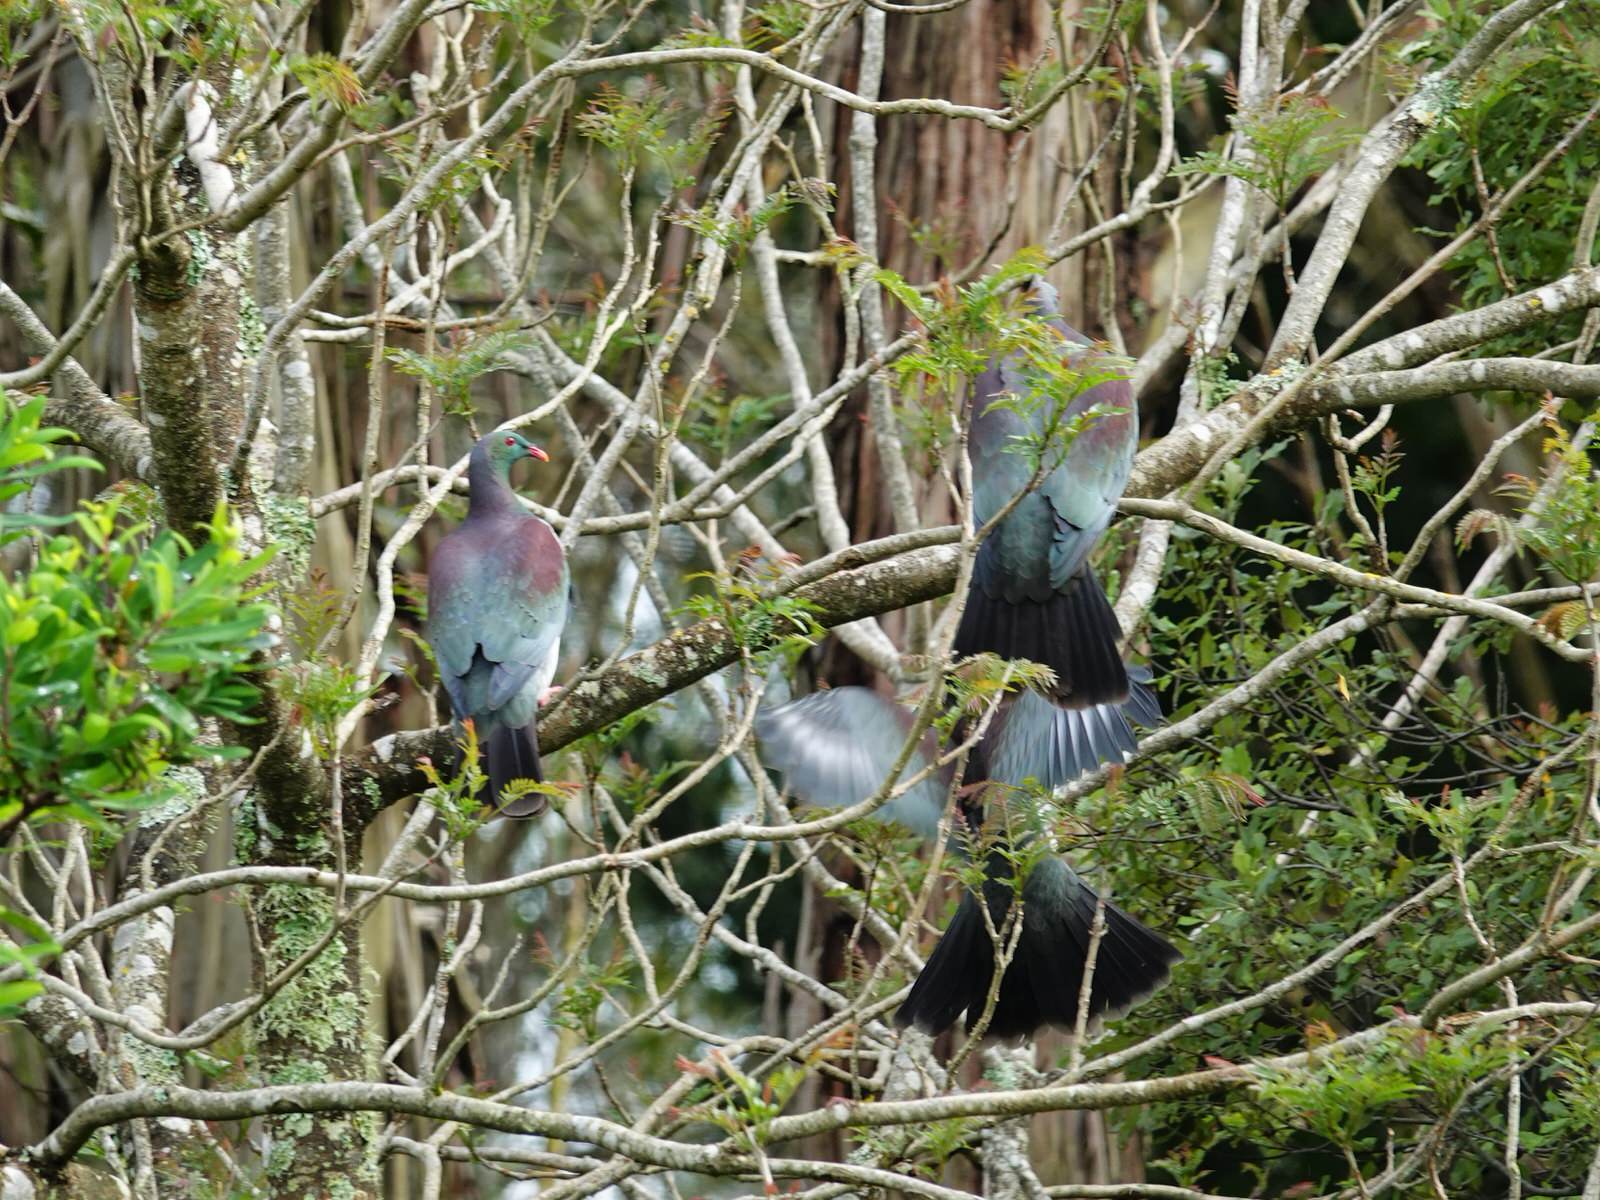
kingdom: Animalia
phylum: Chordata
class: Aves
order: Columbiformes
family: Columbidae
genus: Hemiphaga
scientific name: Hemiphaga novaeseelandiae
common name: New zealand pigeon
